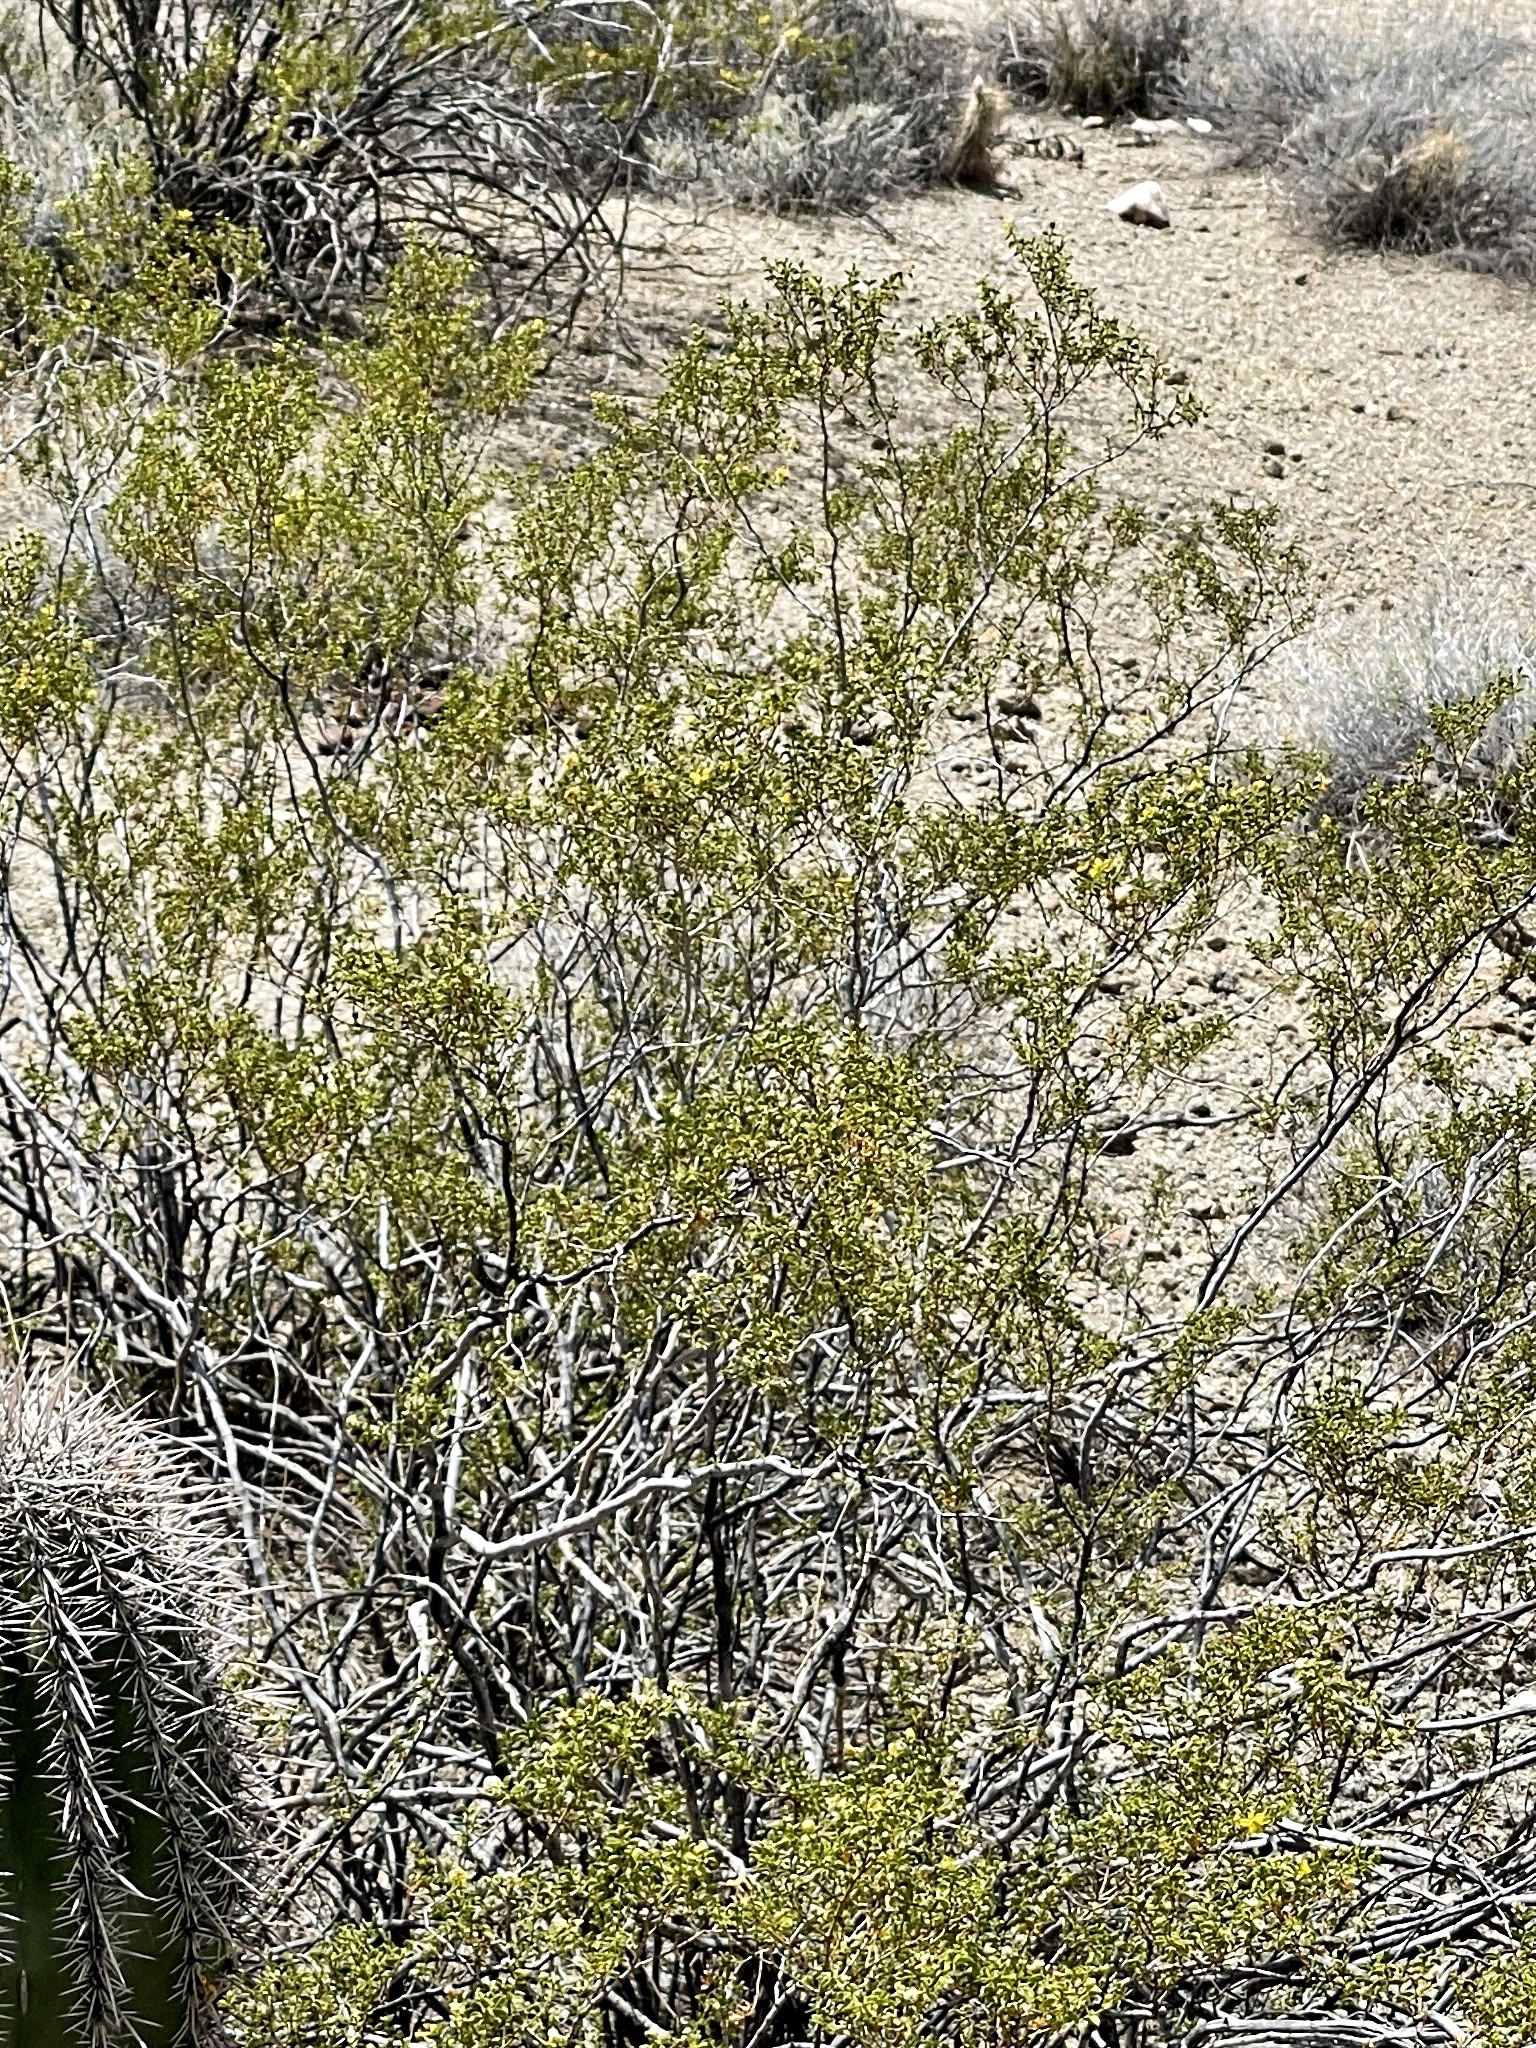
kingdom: Plantae
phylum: Tracheophyta
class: Magnoliopsida
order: Zygophyllales
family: Zygophyllaceae
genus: Larrea
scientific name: Larrea tridentata
